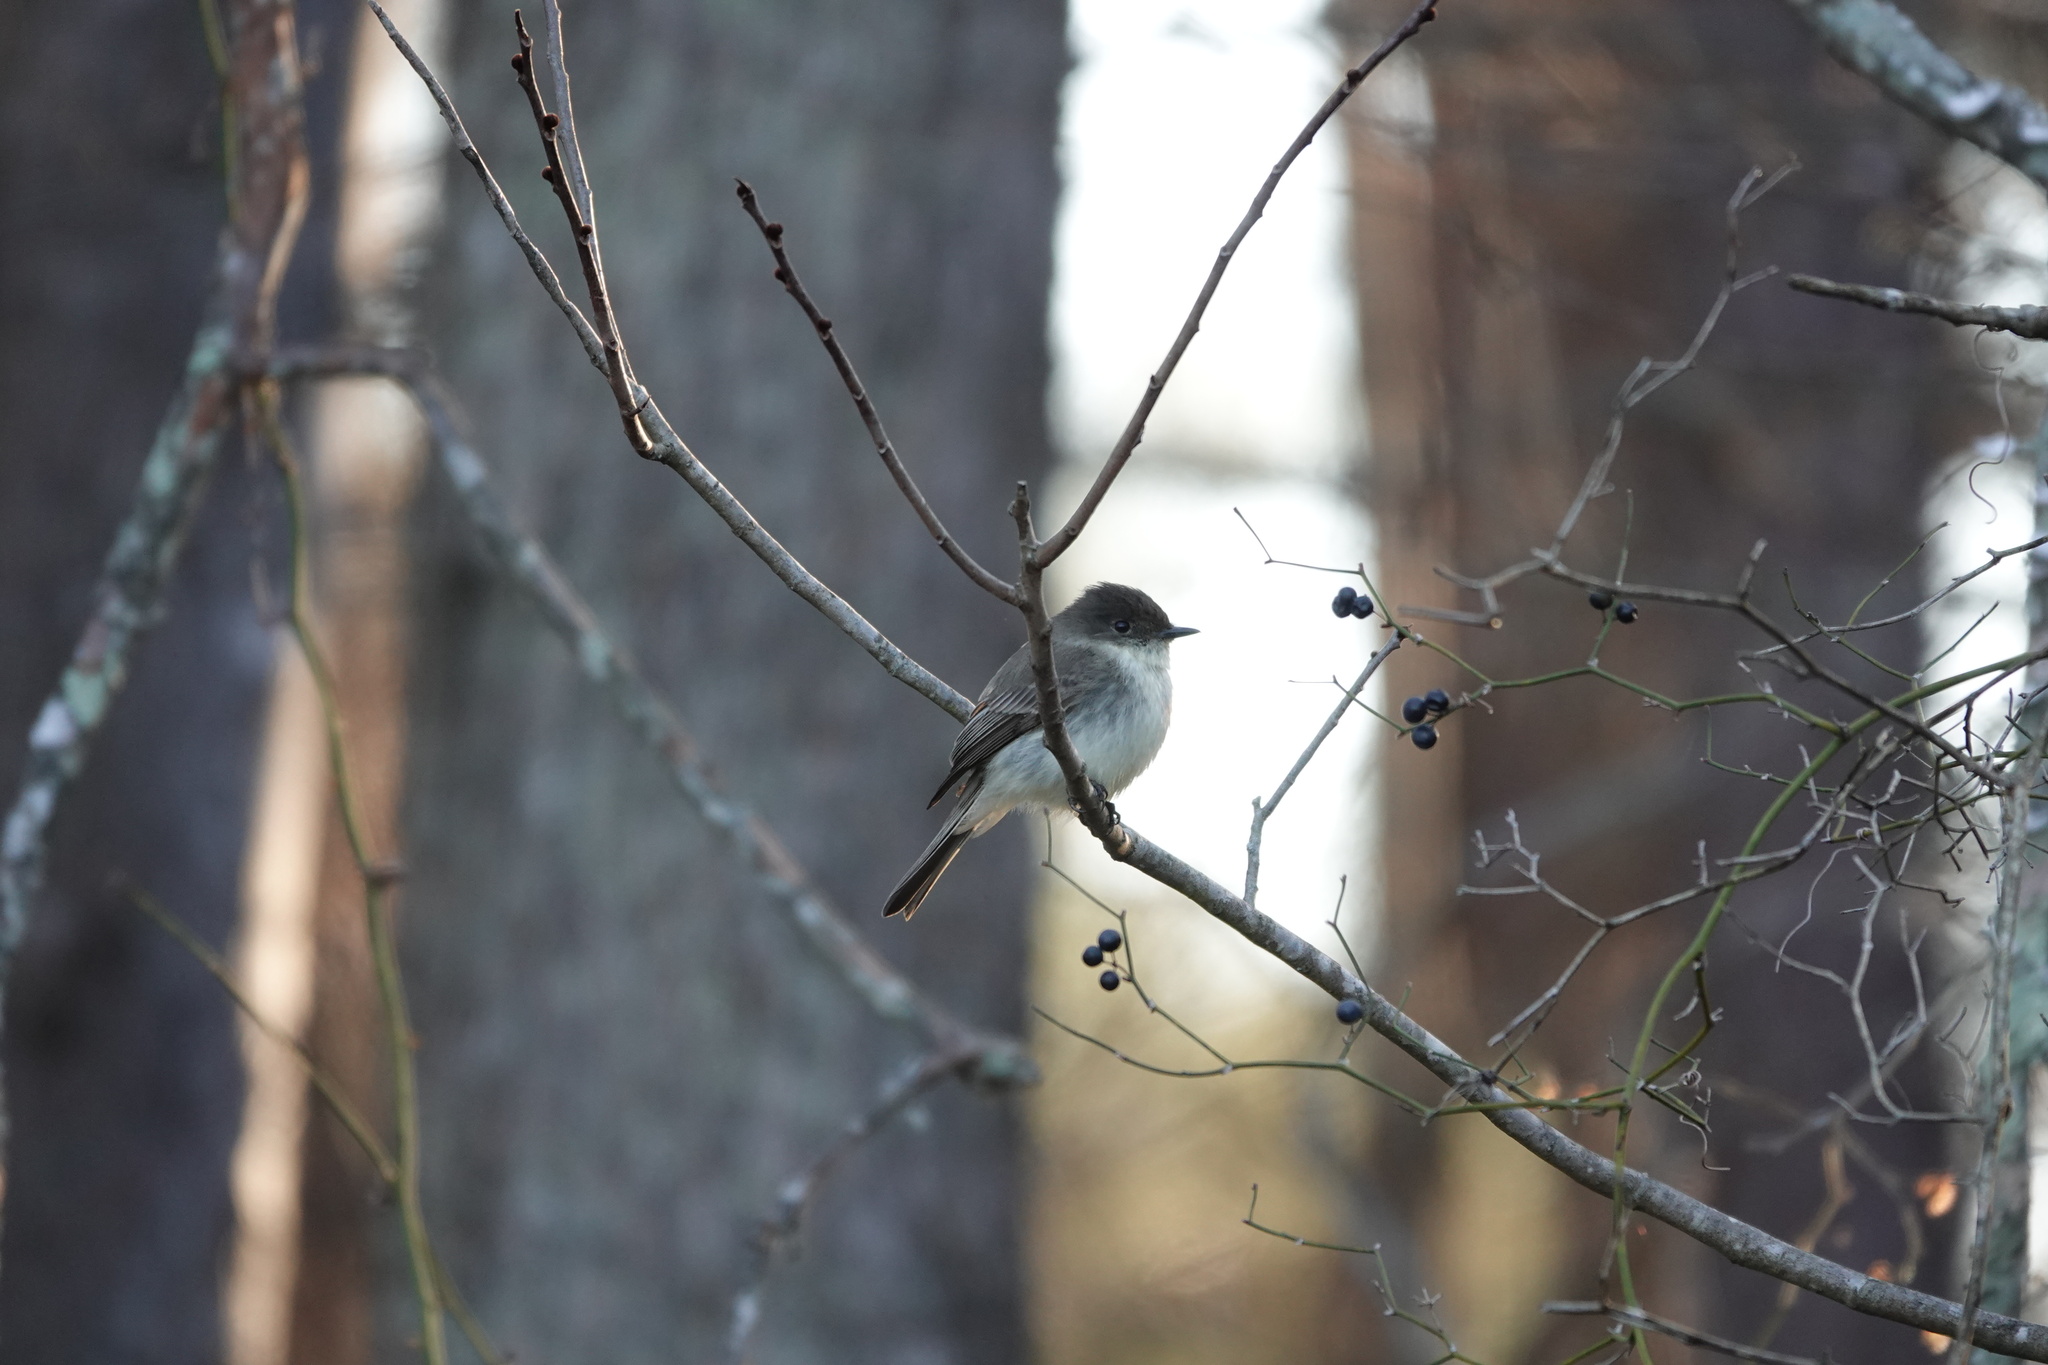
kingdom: Animalia
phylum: Chordata
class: Aves
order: Passeriformes
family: Tyrannidae
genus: Sayornis
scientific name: Sayornis phoebe
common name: Eastern phoebe
